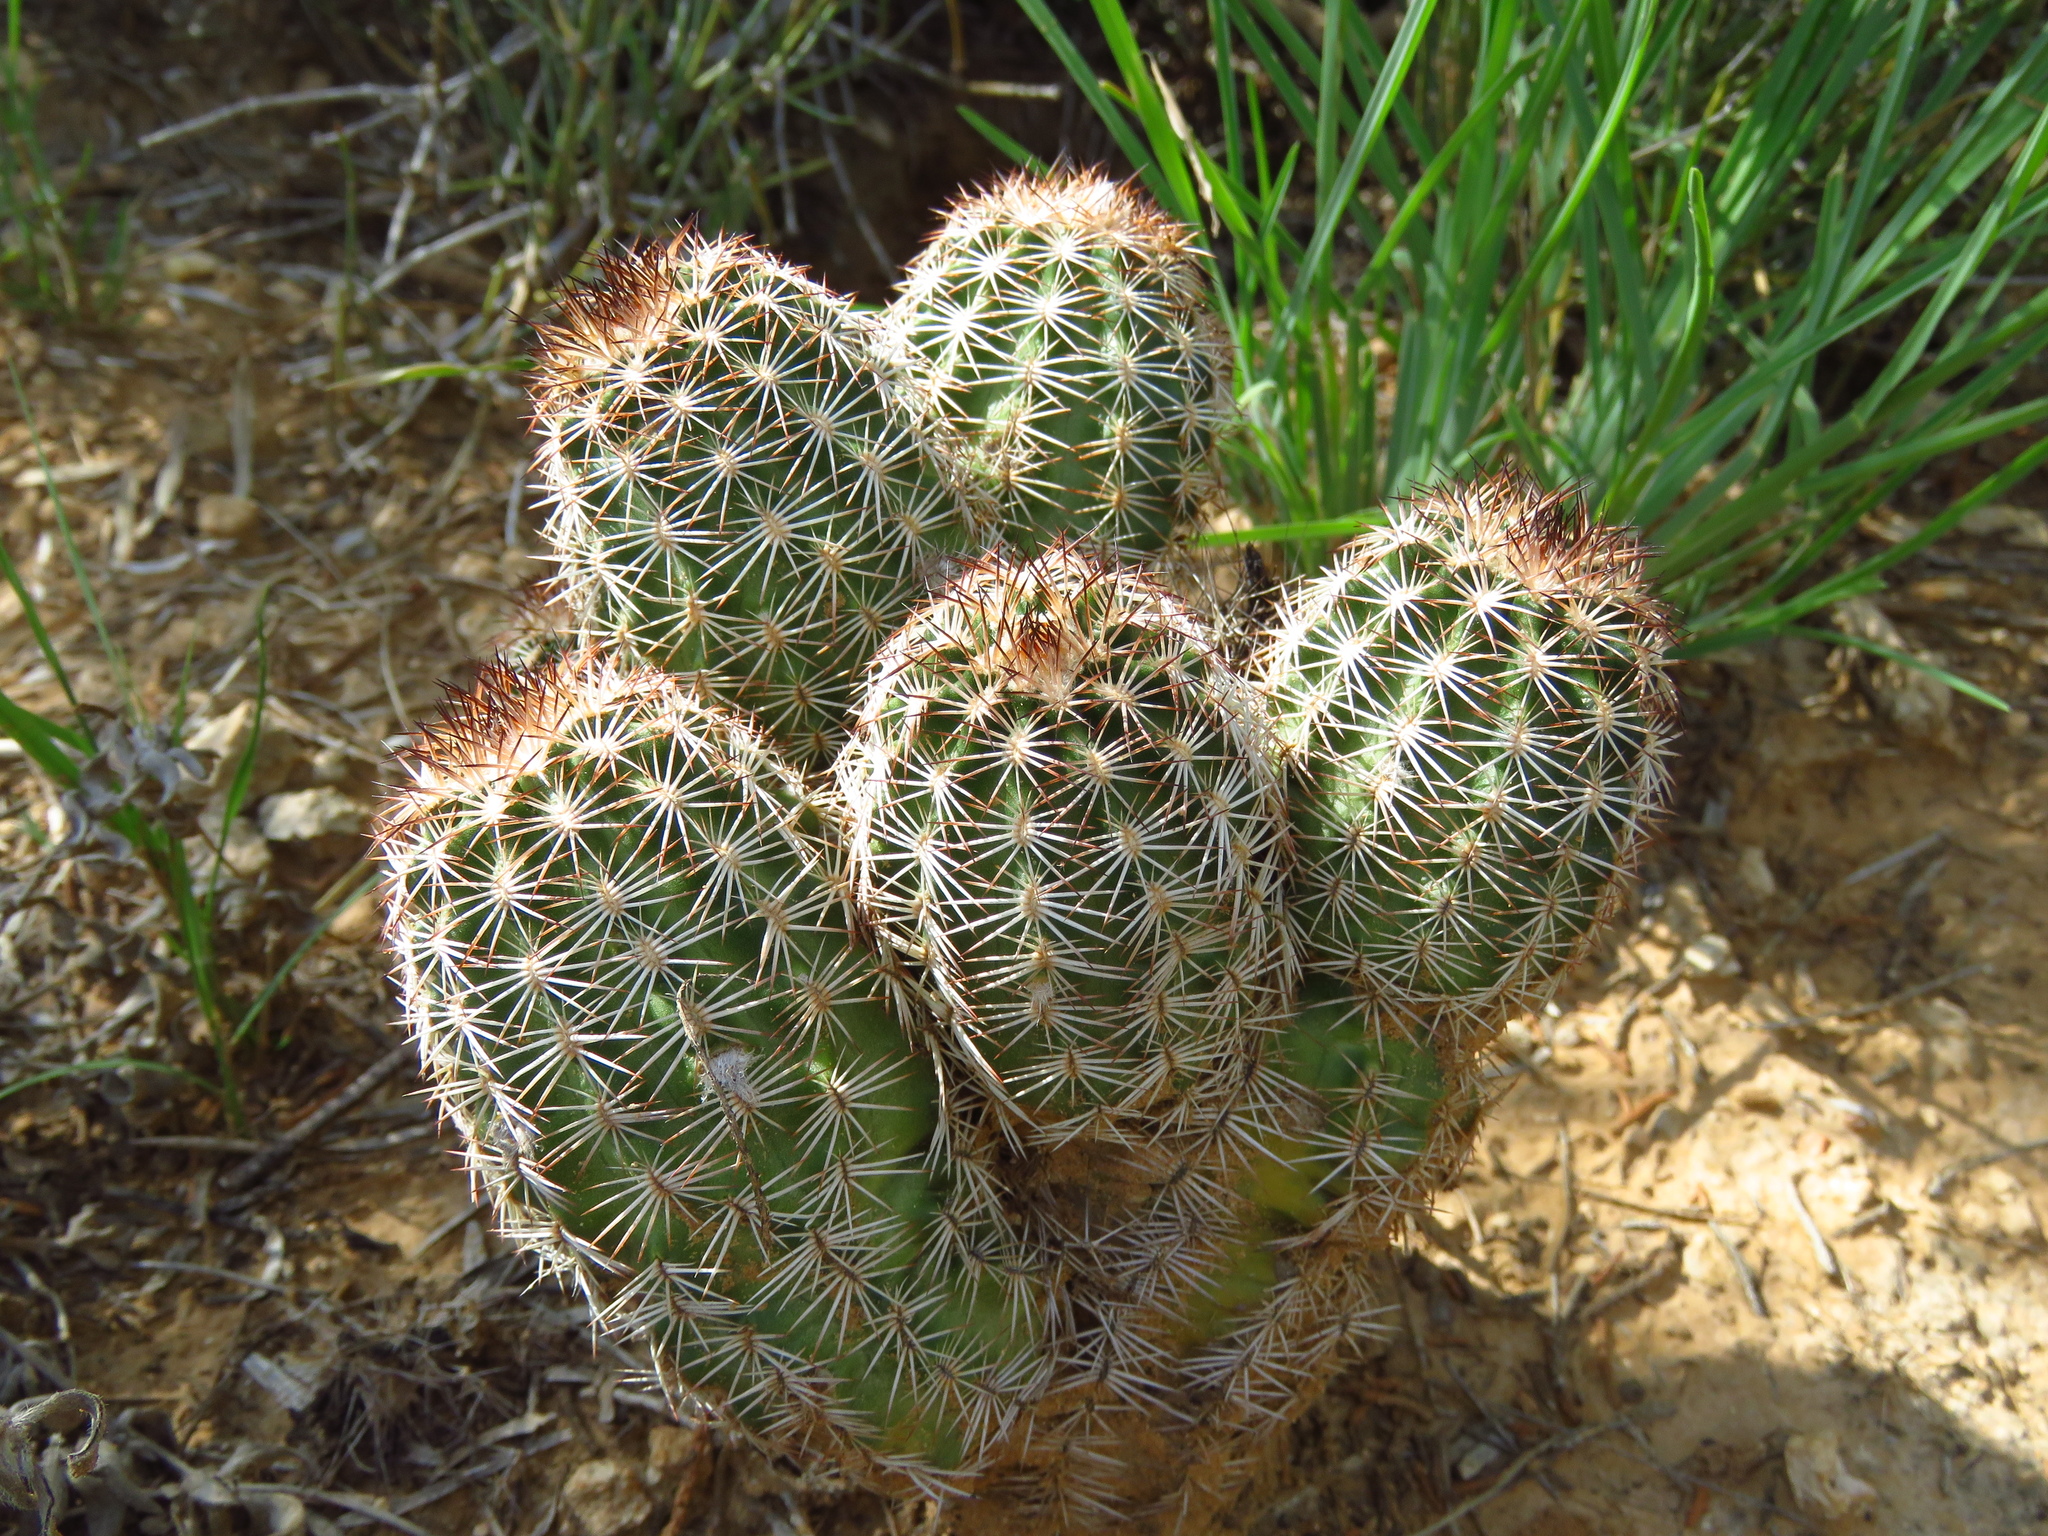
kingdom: Plantae
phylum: Tracheophyta
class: Magnoliopsida
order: Caryophyllales
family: Cactaceae
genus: Echinocereus
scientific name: Echinocereus reichenbachii
